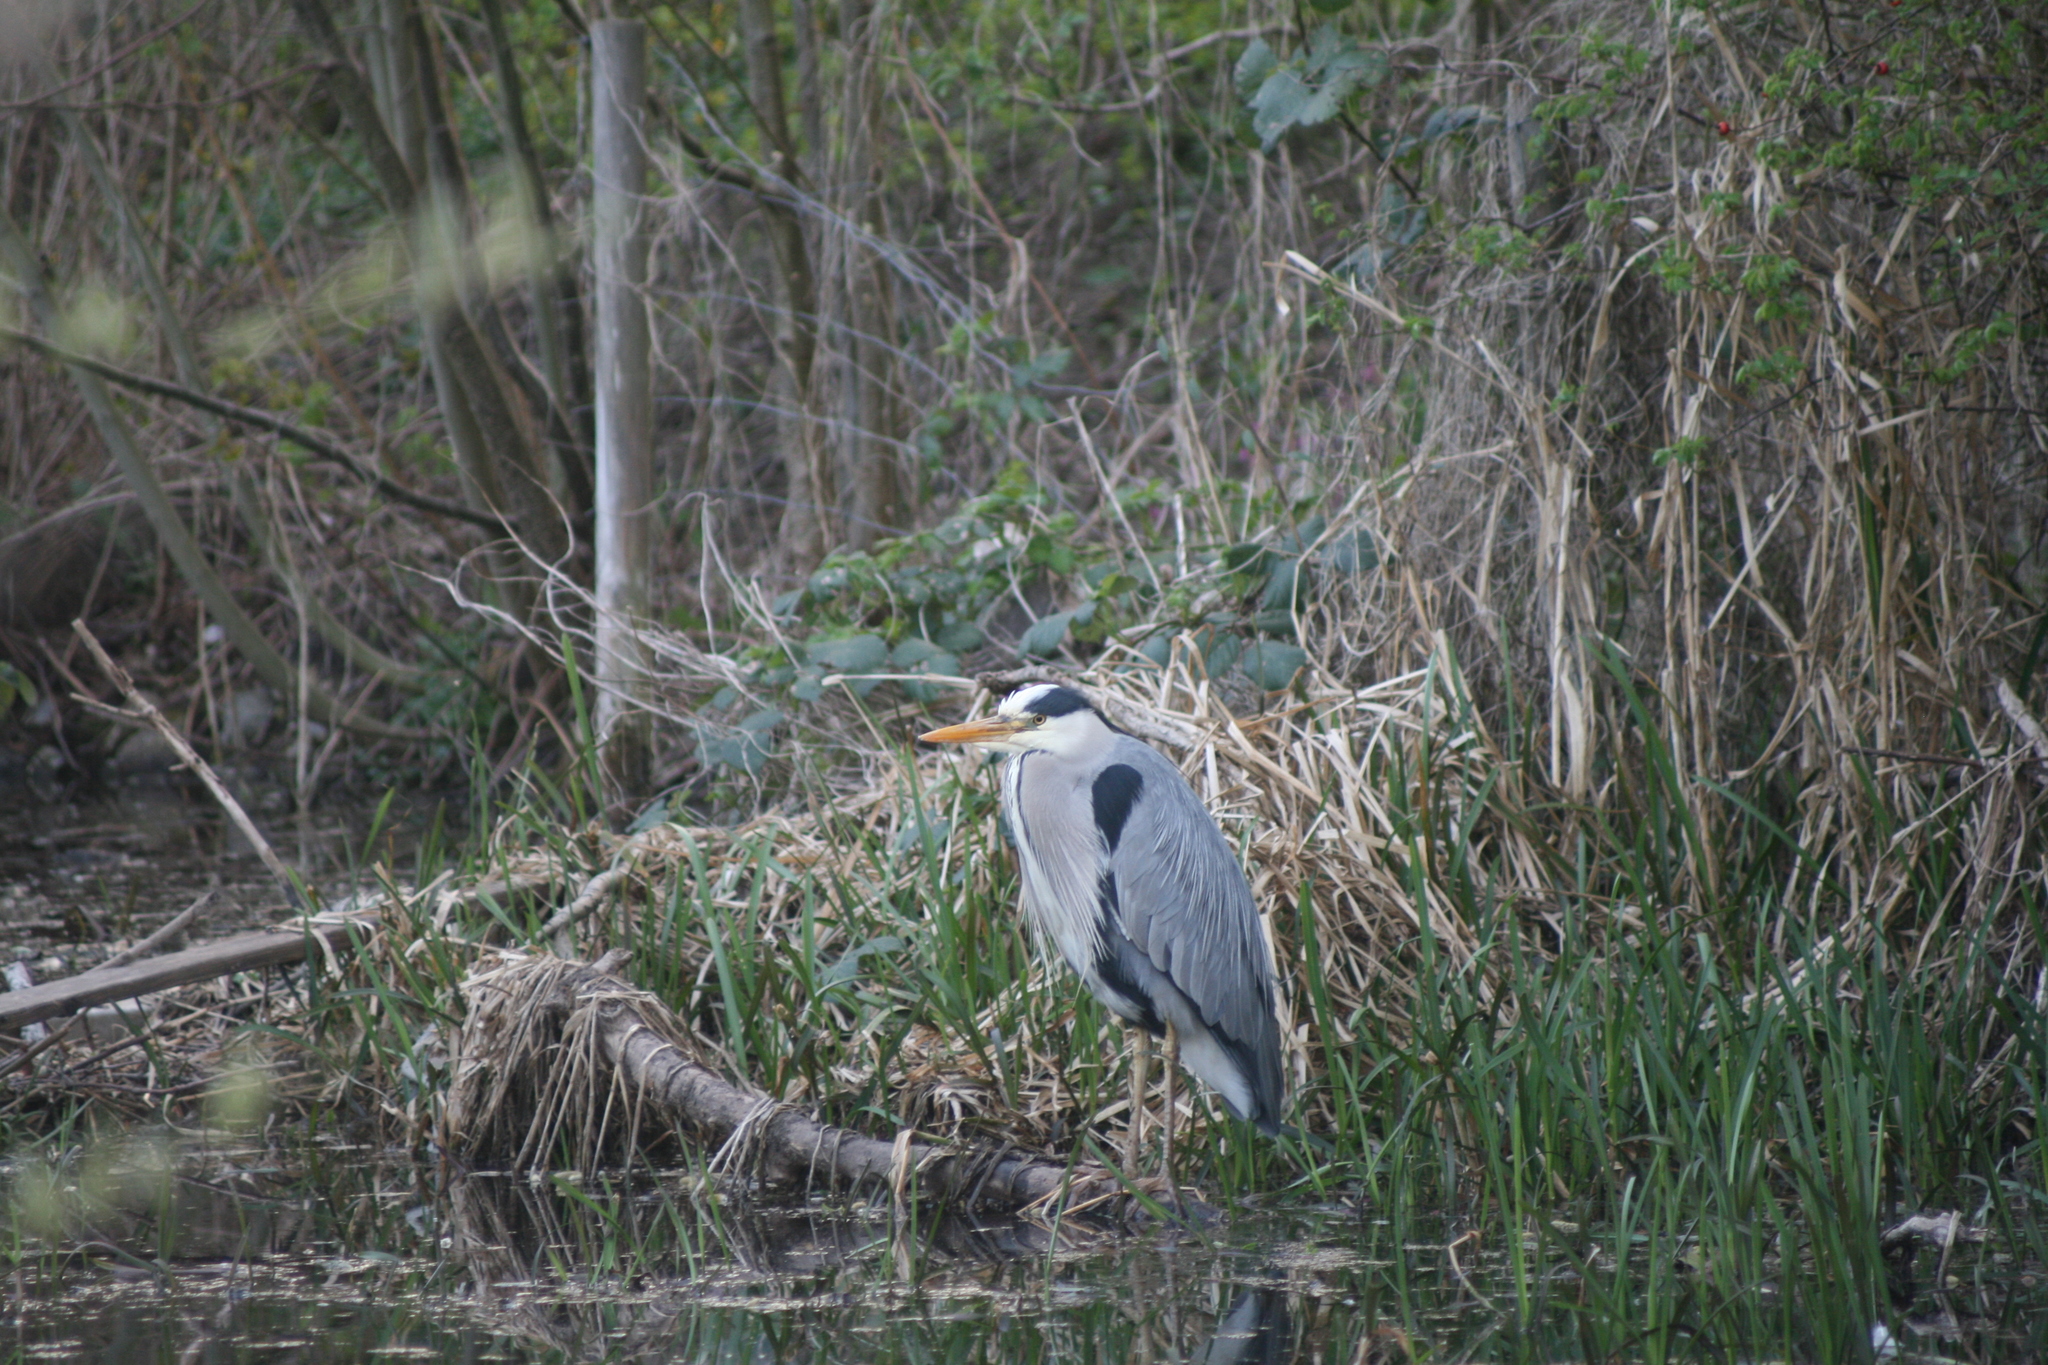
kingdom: Animalia
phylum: Chordata
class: Aves
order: Pelecaniformes
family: Ardeidae
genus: Ardea
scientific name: Ardea cinerea
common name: Grey heron
